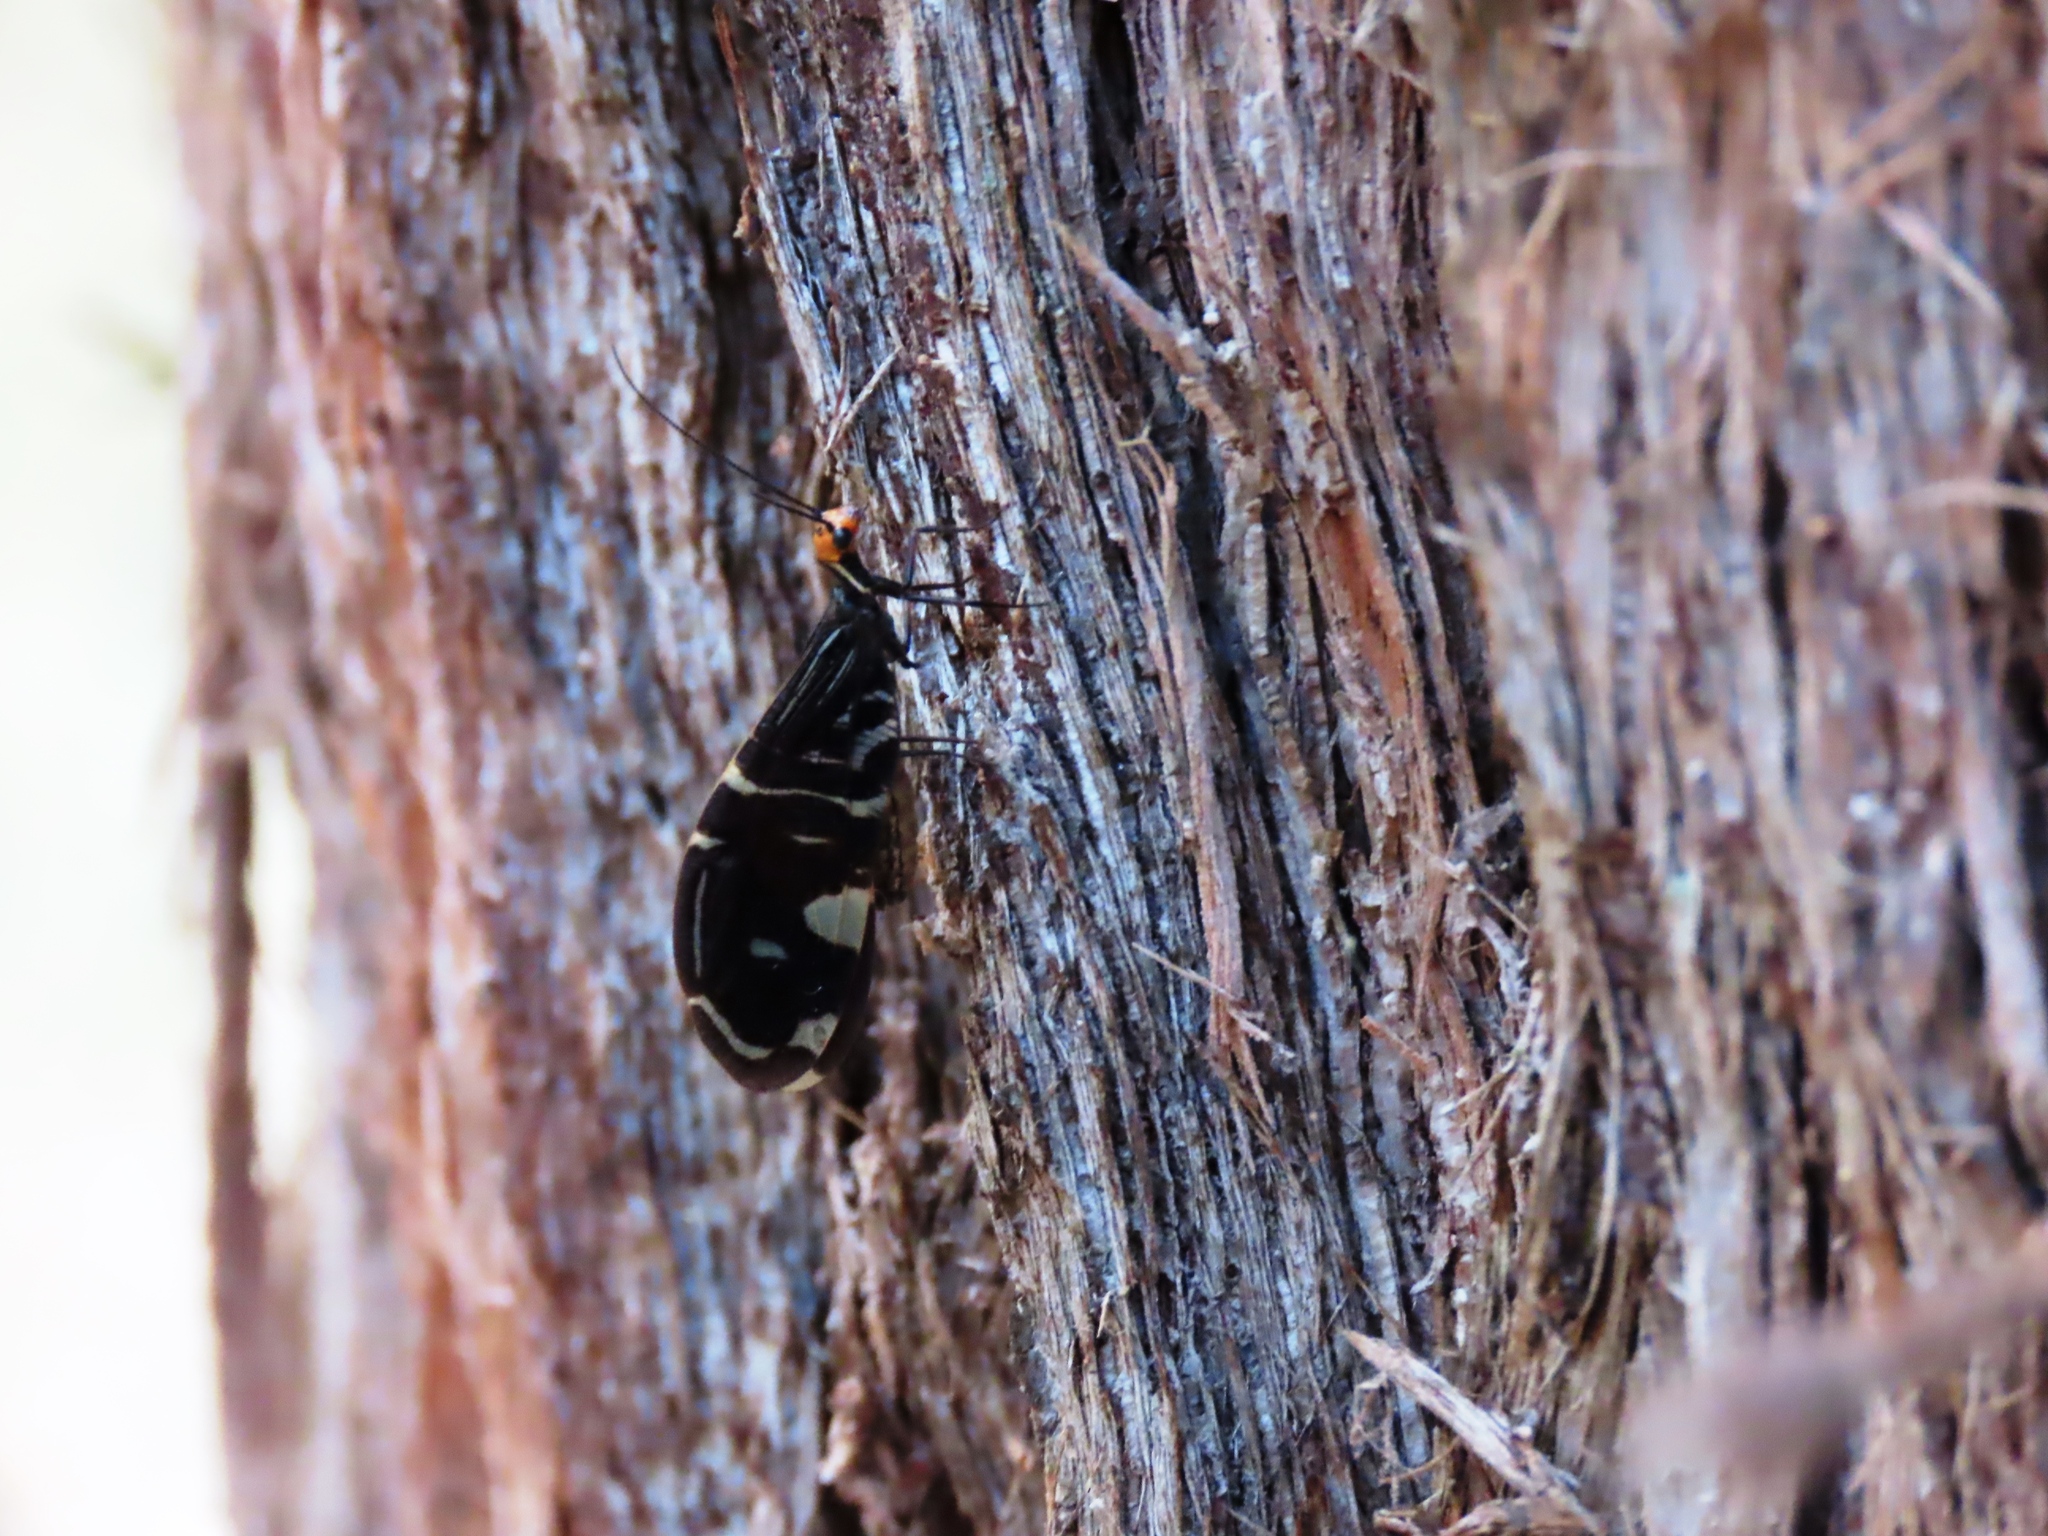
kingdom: Animalia
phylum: Arthropoda
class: Insecta
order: Neuroptera
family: Osmylidae
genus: Porismus
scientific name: Porismus strigatus
